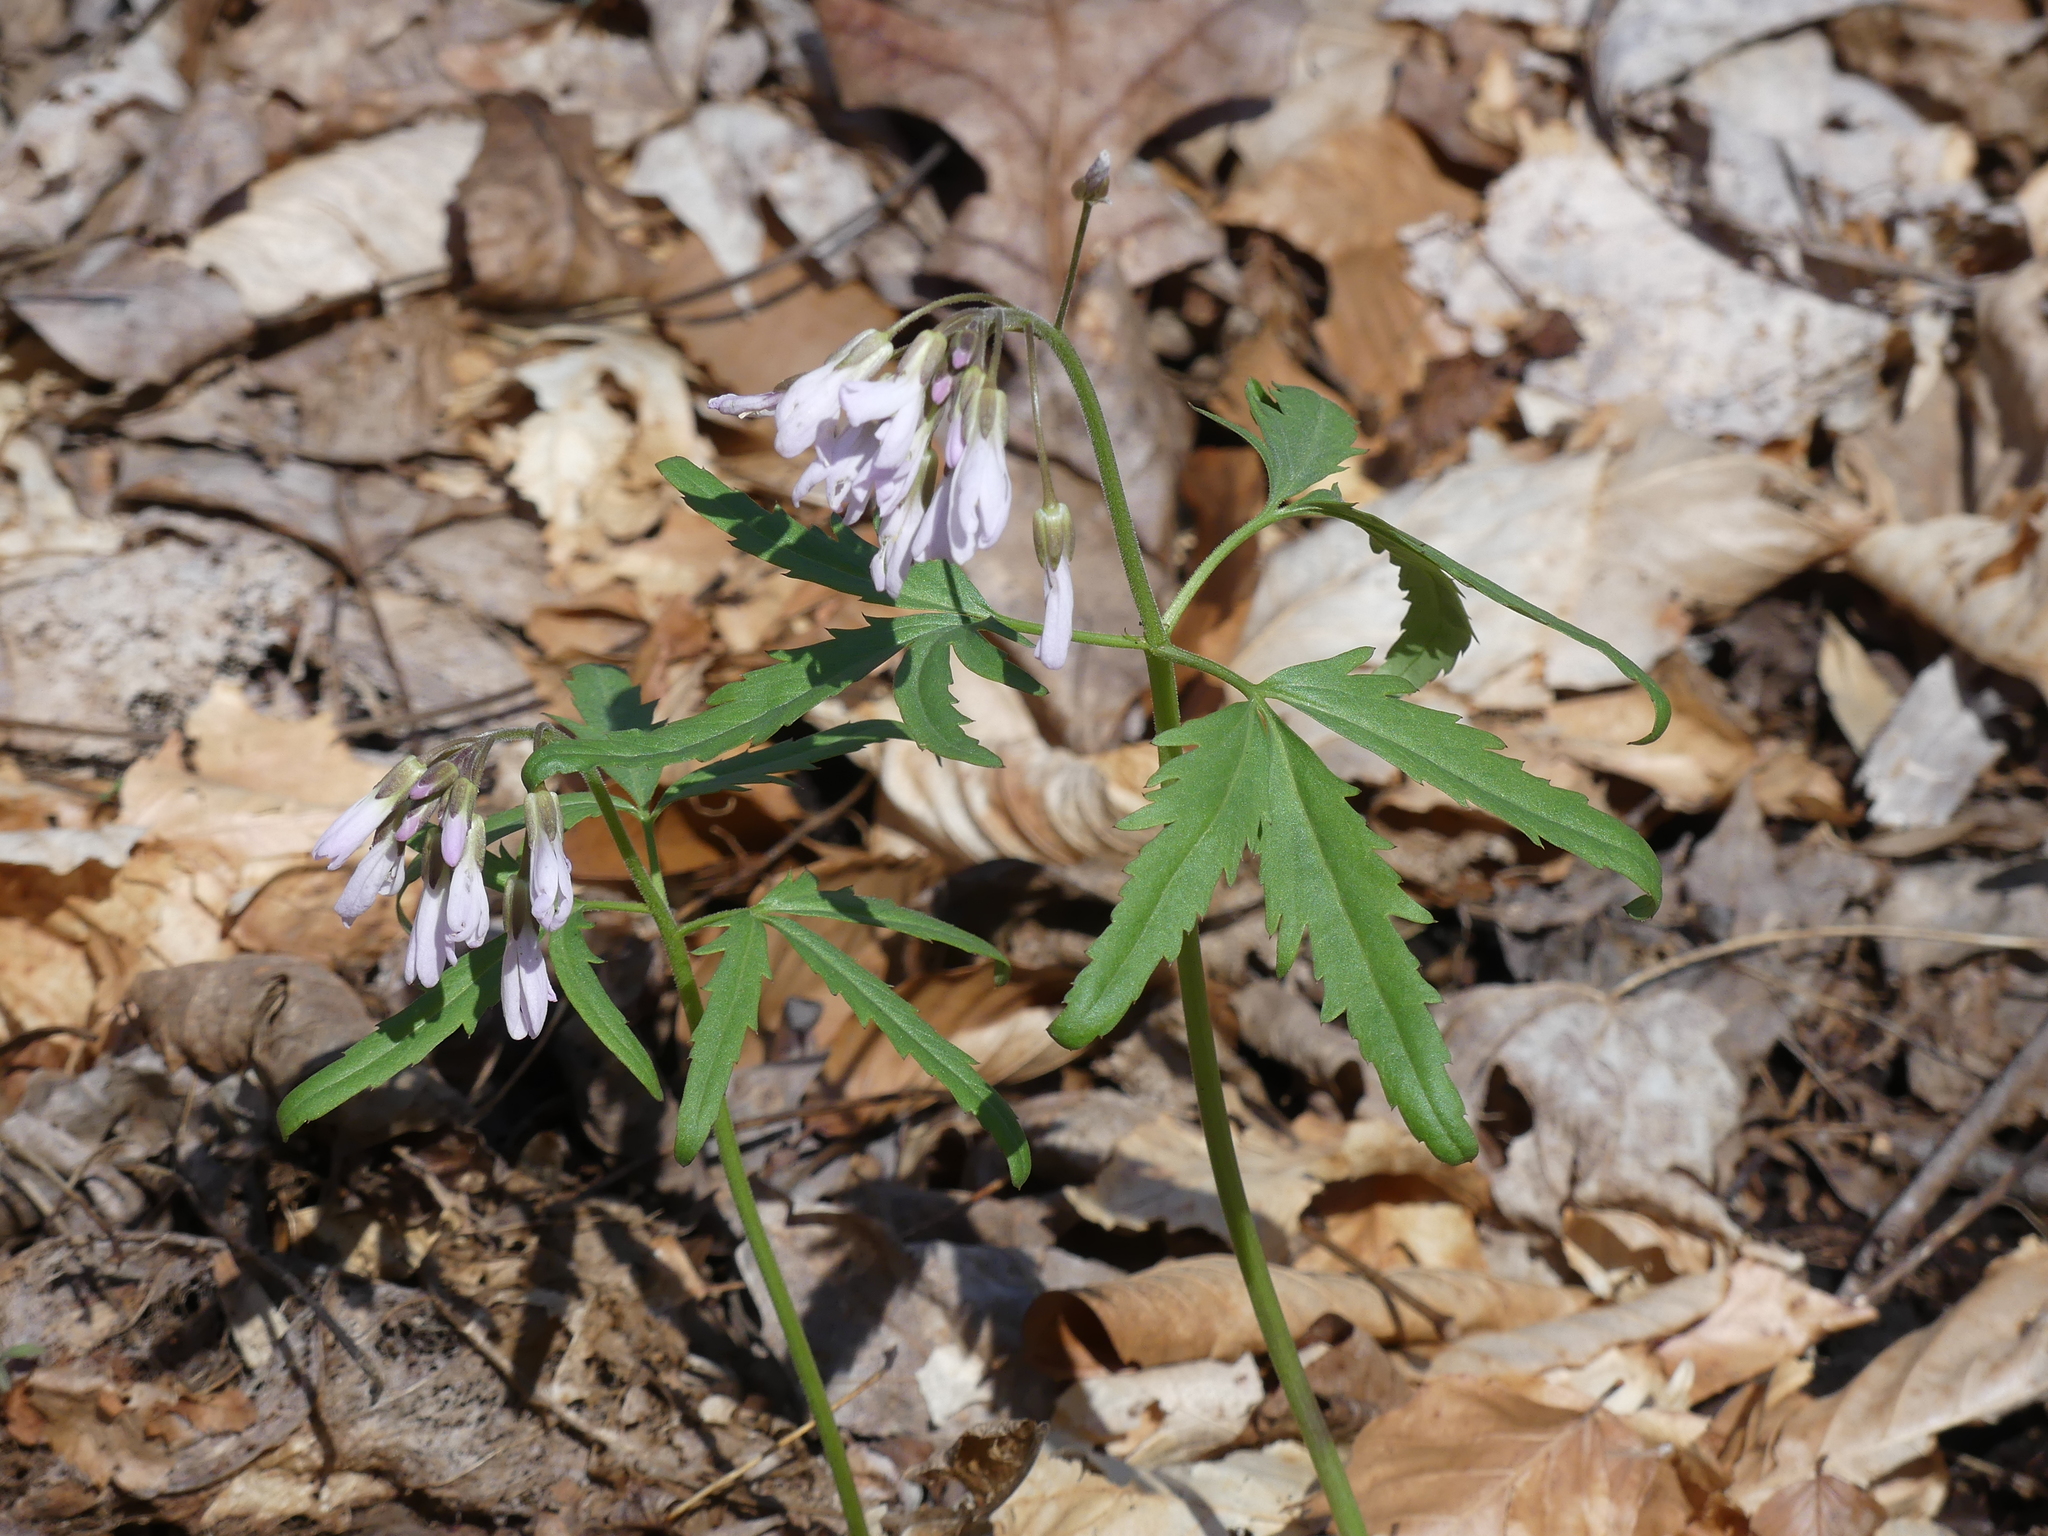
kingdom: Plantae
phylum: Tracheophyta
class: Magnoliopsida
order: Brassicales
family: Brassicaceae
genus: Cardamine
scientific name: Cardamine concatenata
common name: Cut-leaf toothcup
